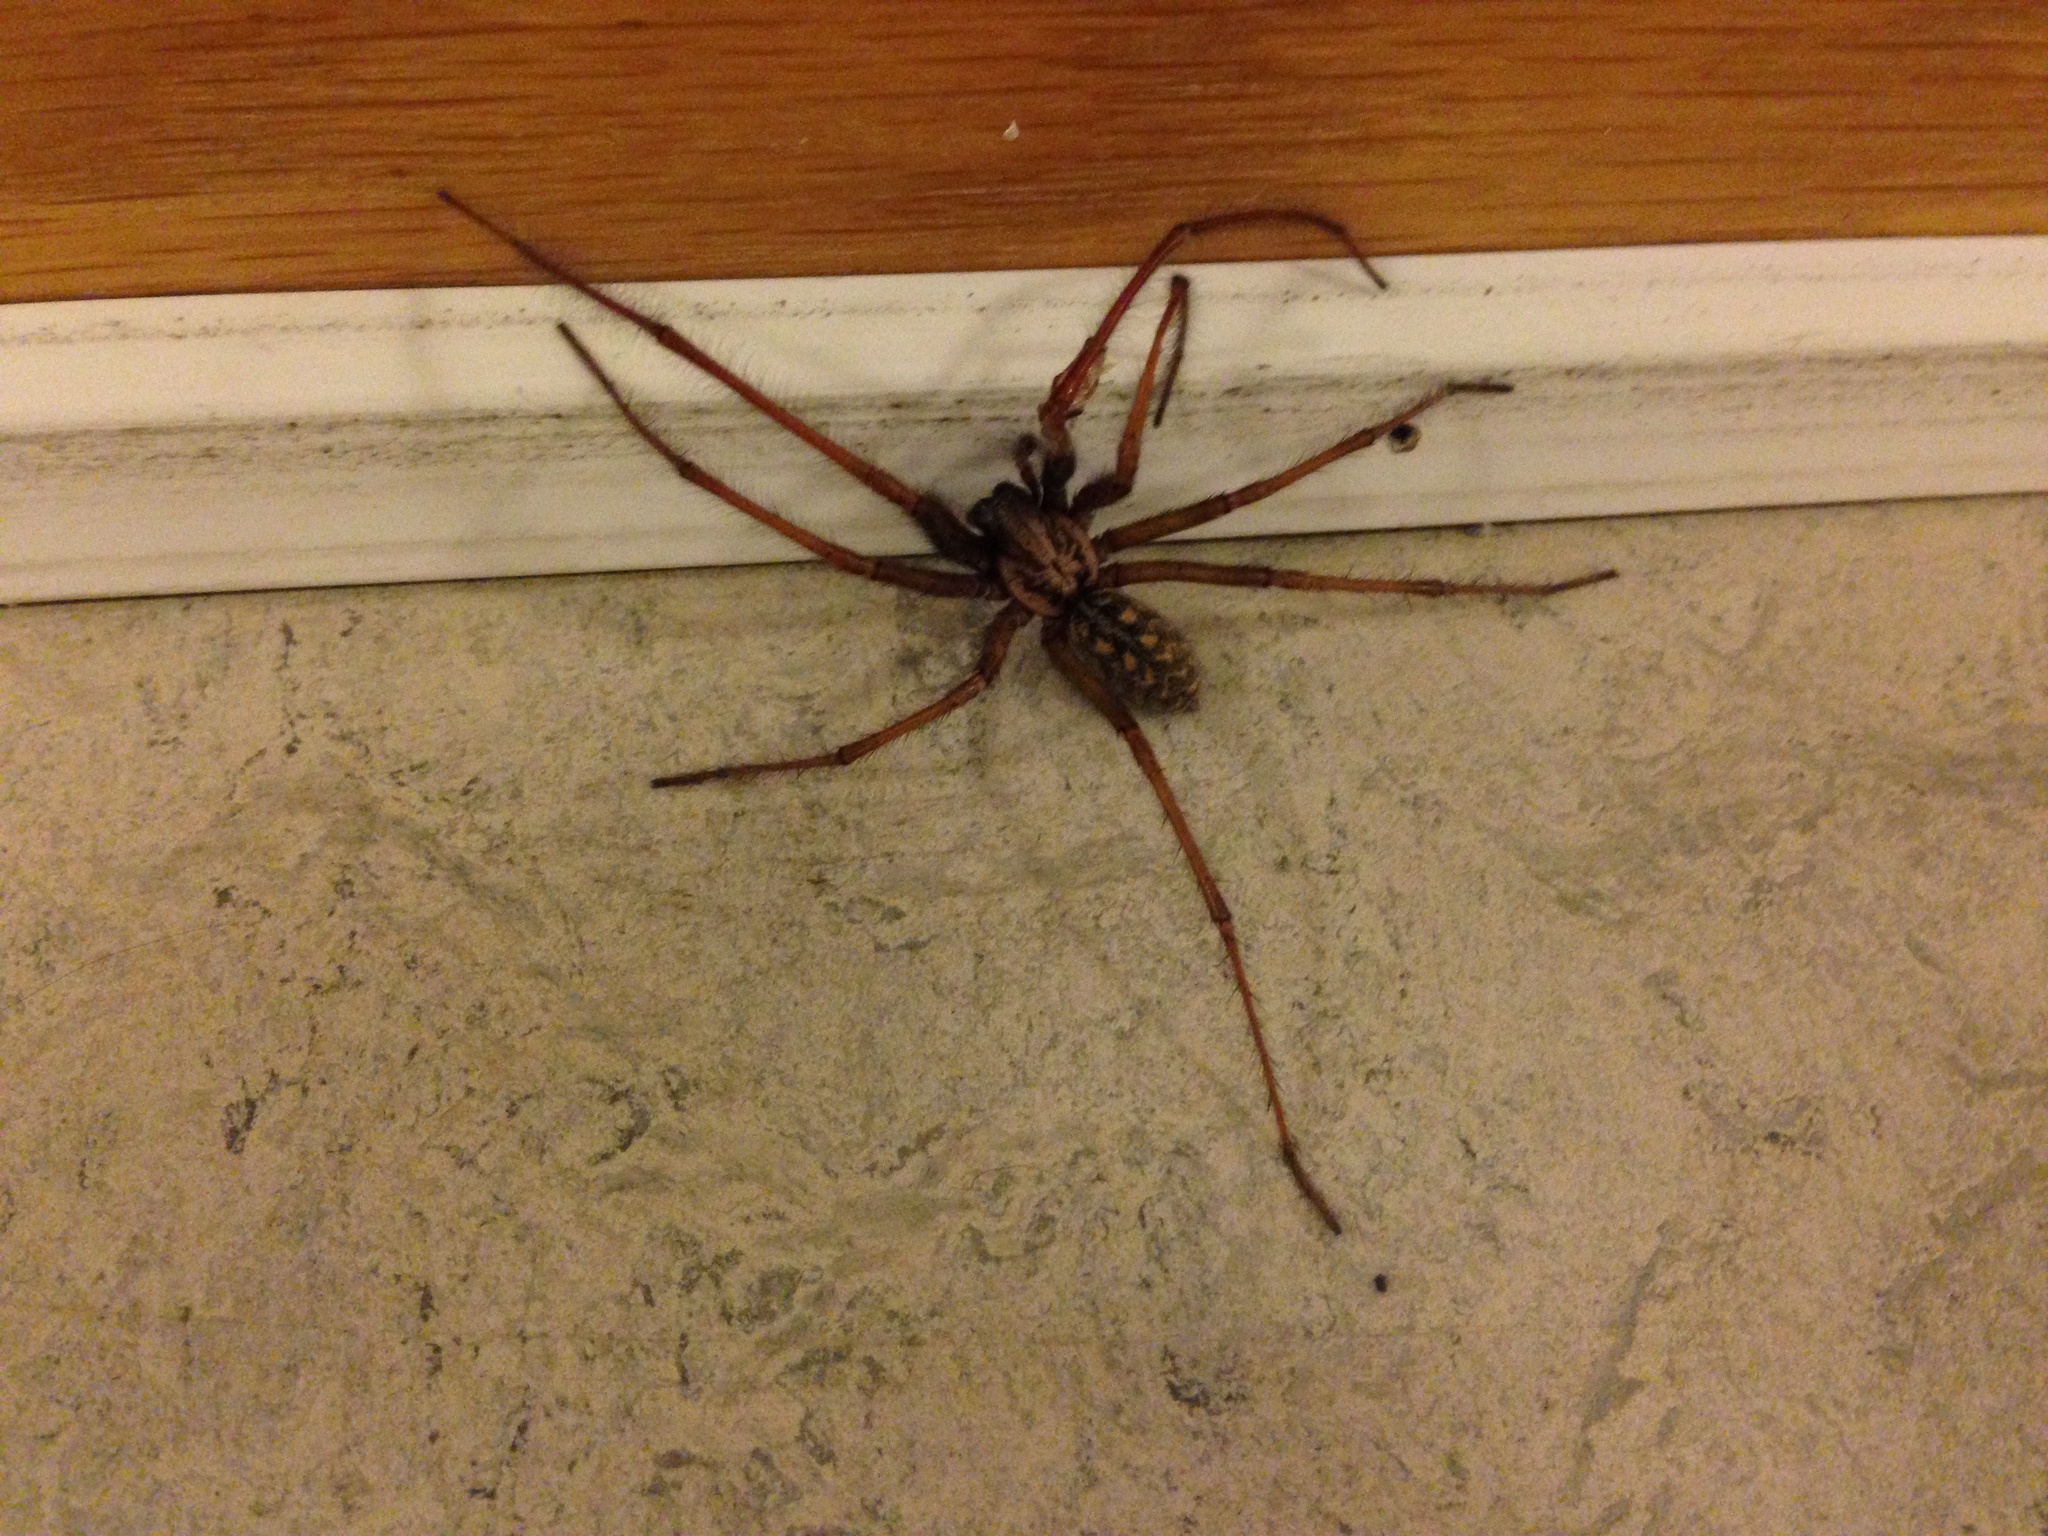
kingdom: Animalia
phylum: Arthropoda
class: Arachnida
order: Araneae
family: Agelenidae
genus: Eratigena
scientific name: Eratigena atrica
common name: Giant house spider
